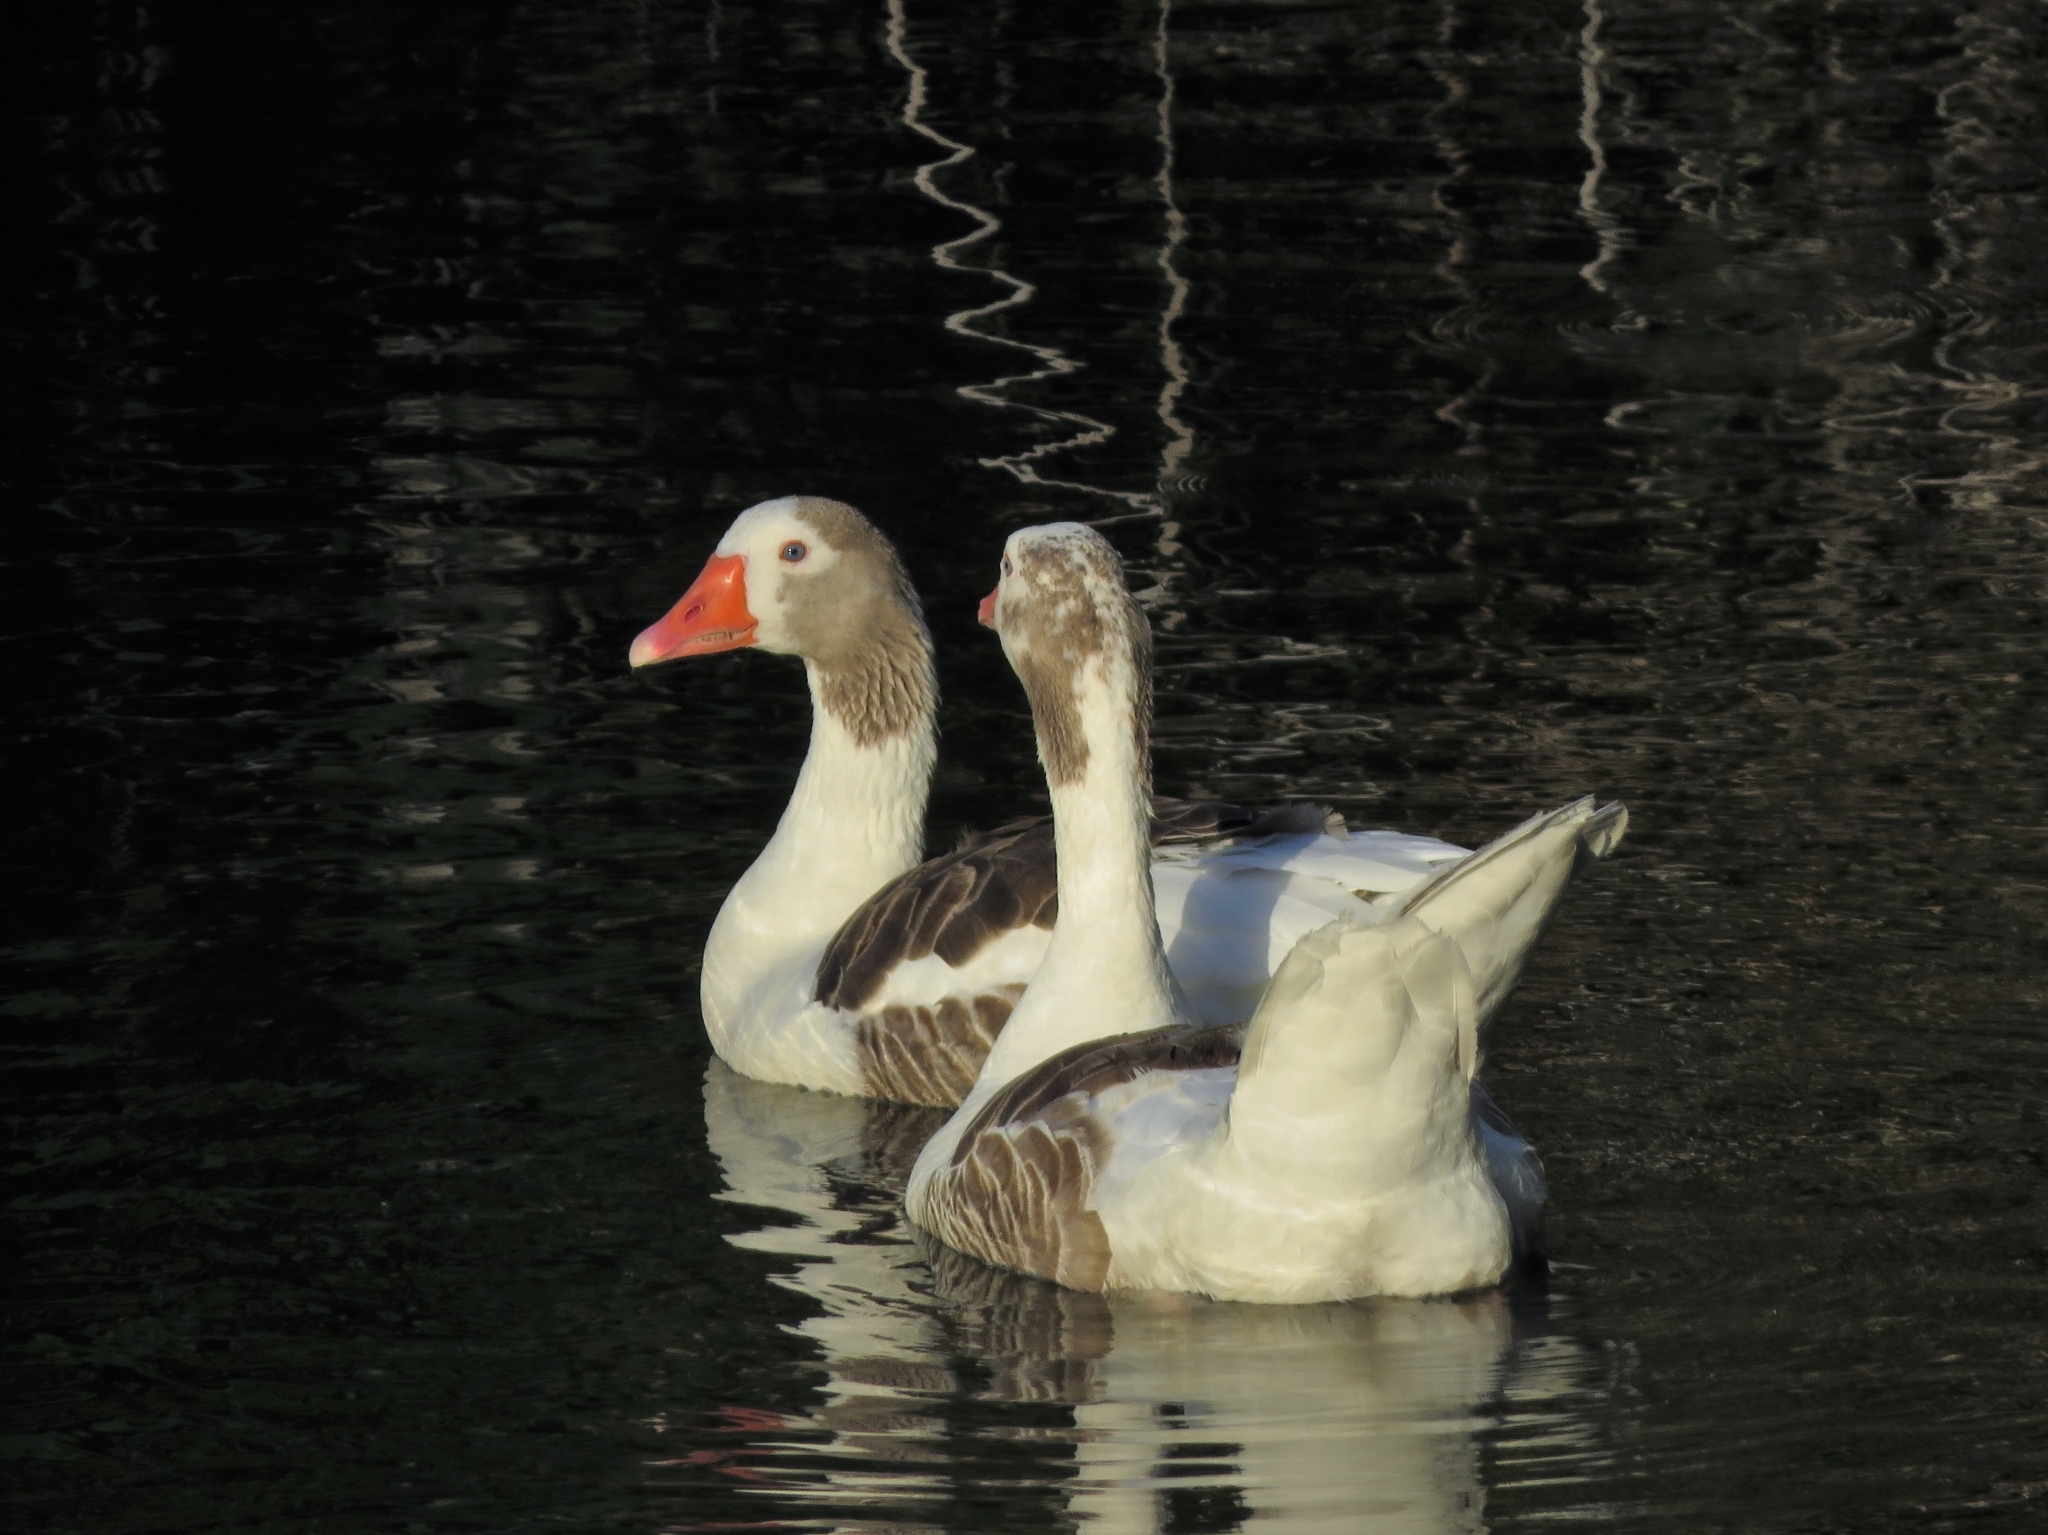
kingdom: Animalia
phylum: Chordata
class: Aves
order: Anseriformes
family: Anatidae
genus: Anser
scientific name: Anser anser
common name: Greylag goose
